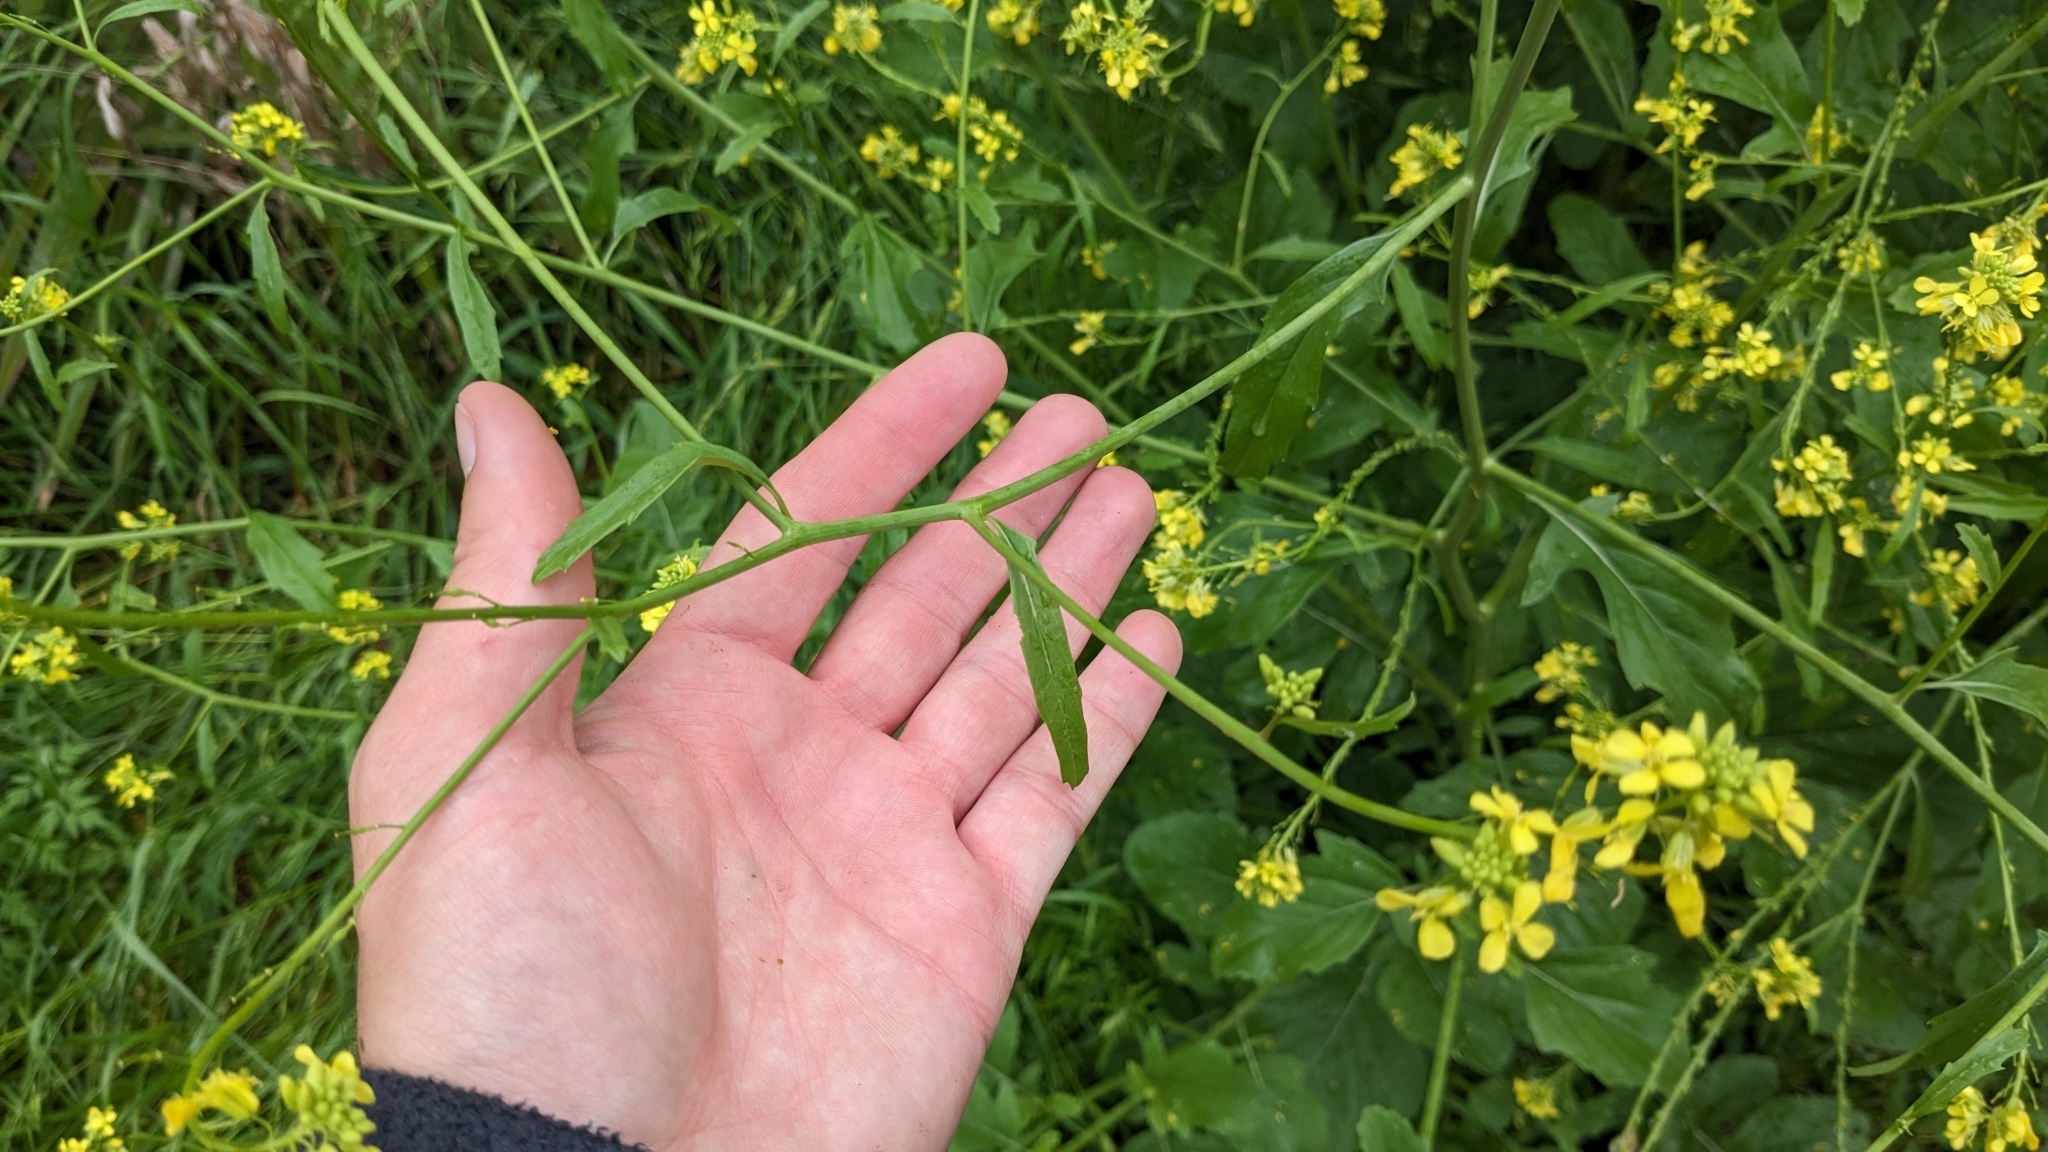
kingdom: Plantae
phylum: Tracheophyta
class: Magnoliopsida
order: Brassicales
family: Brassicaceae
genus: Rapistrum
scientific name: Rapistrum rugosum
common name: Annual bastardcabbage
